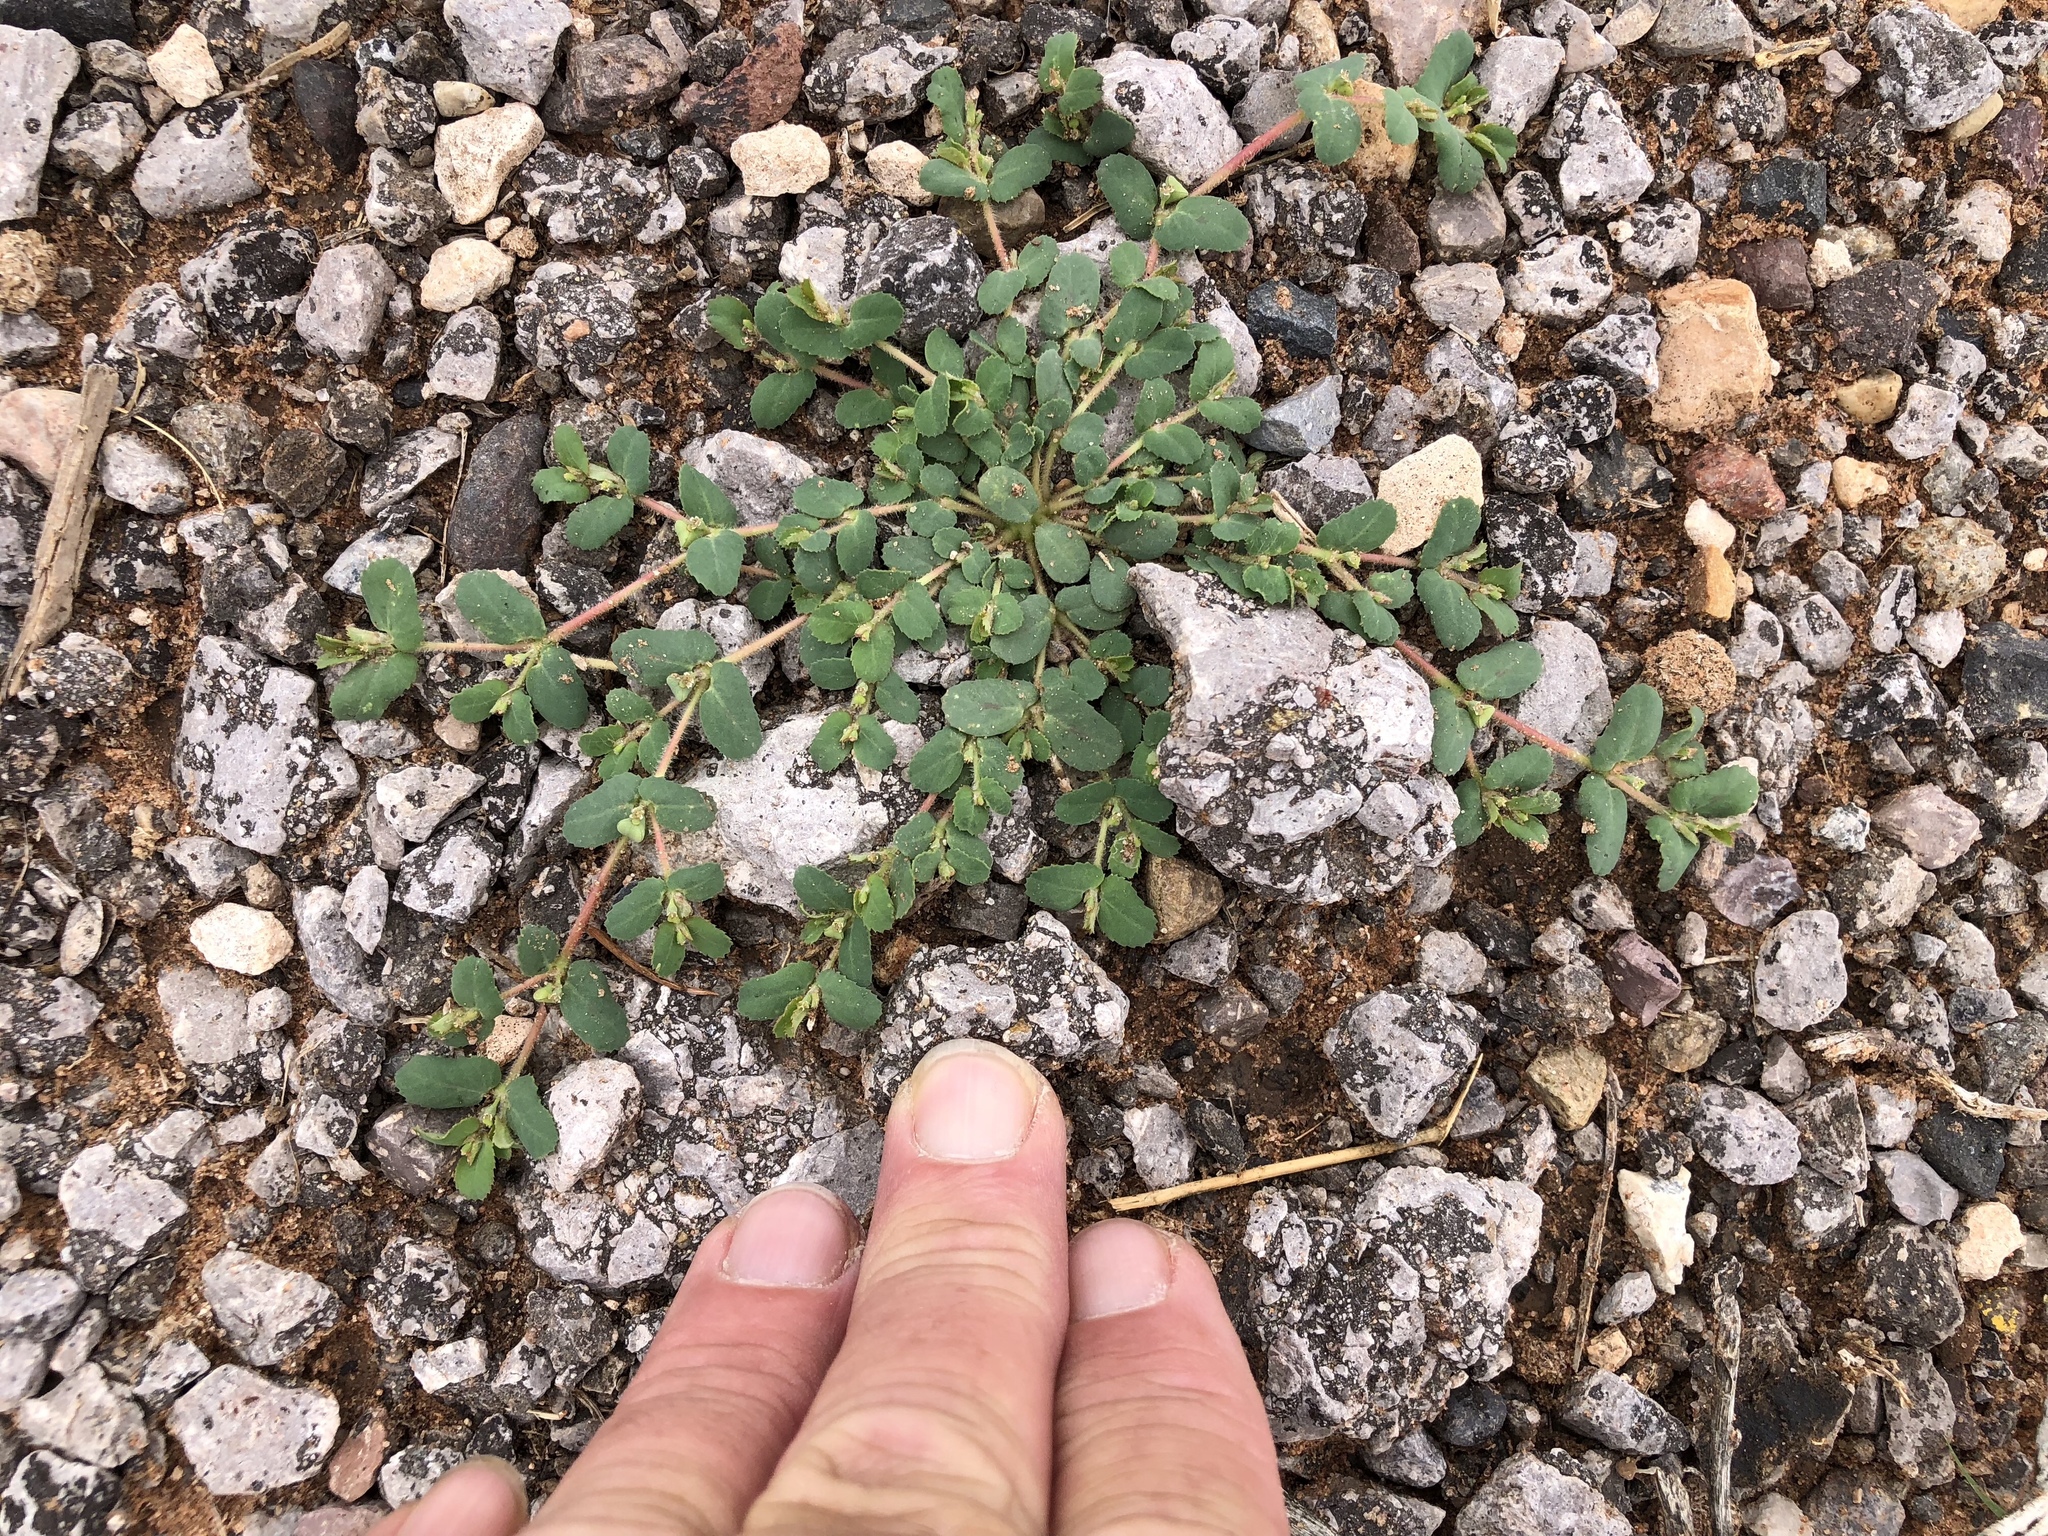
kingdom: Plantae
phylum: Tracheophyta
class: Magnoliopsida
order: Malpighiales
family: Euphorbiaceae
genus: Euphorbia
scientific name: Euphorbia serrula
